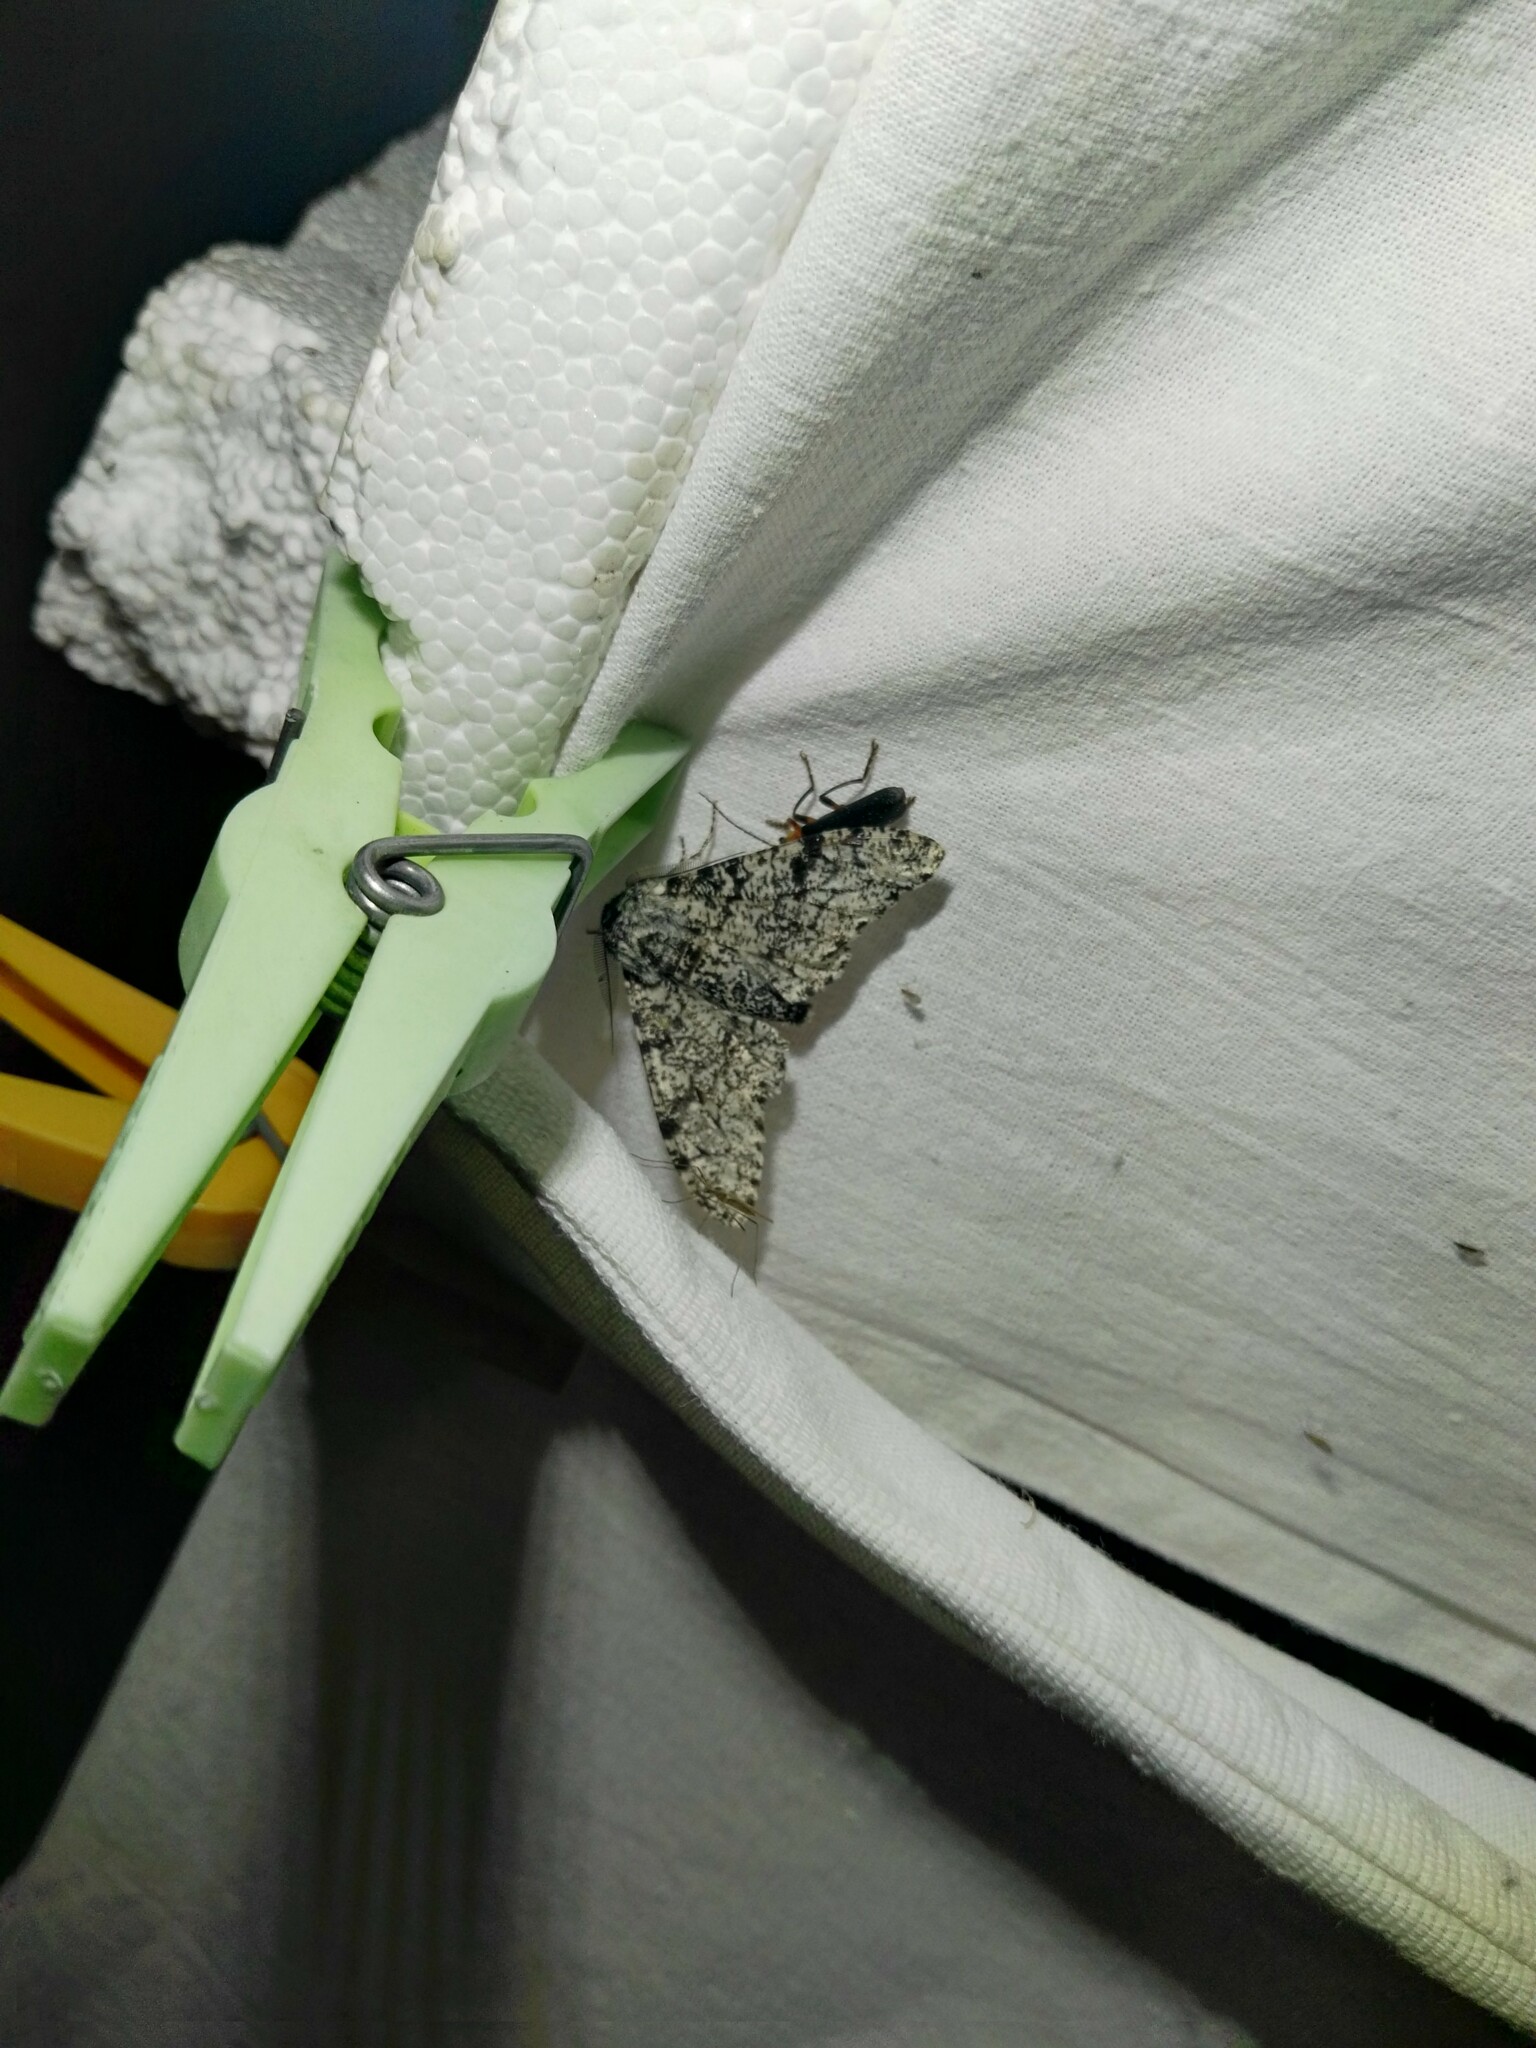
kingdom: Animalia
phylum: Arthropoda
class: Insecta
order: Lepidoptera
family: Geometridae
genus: Biston
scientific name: Biston betularia
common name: Peppered moth
